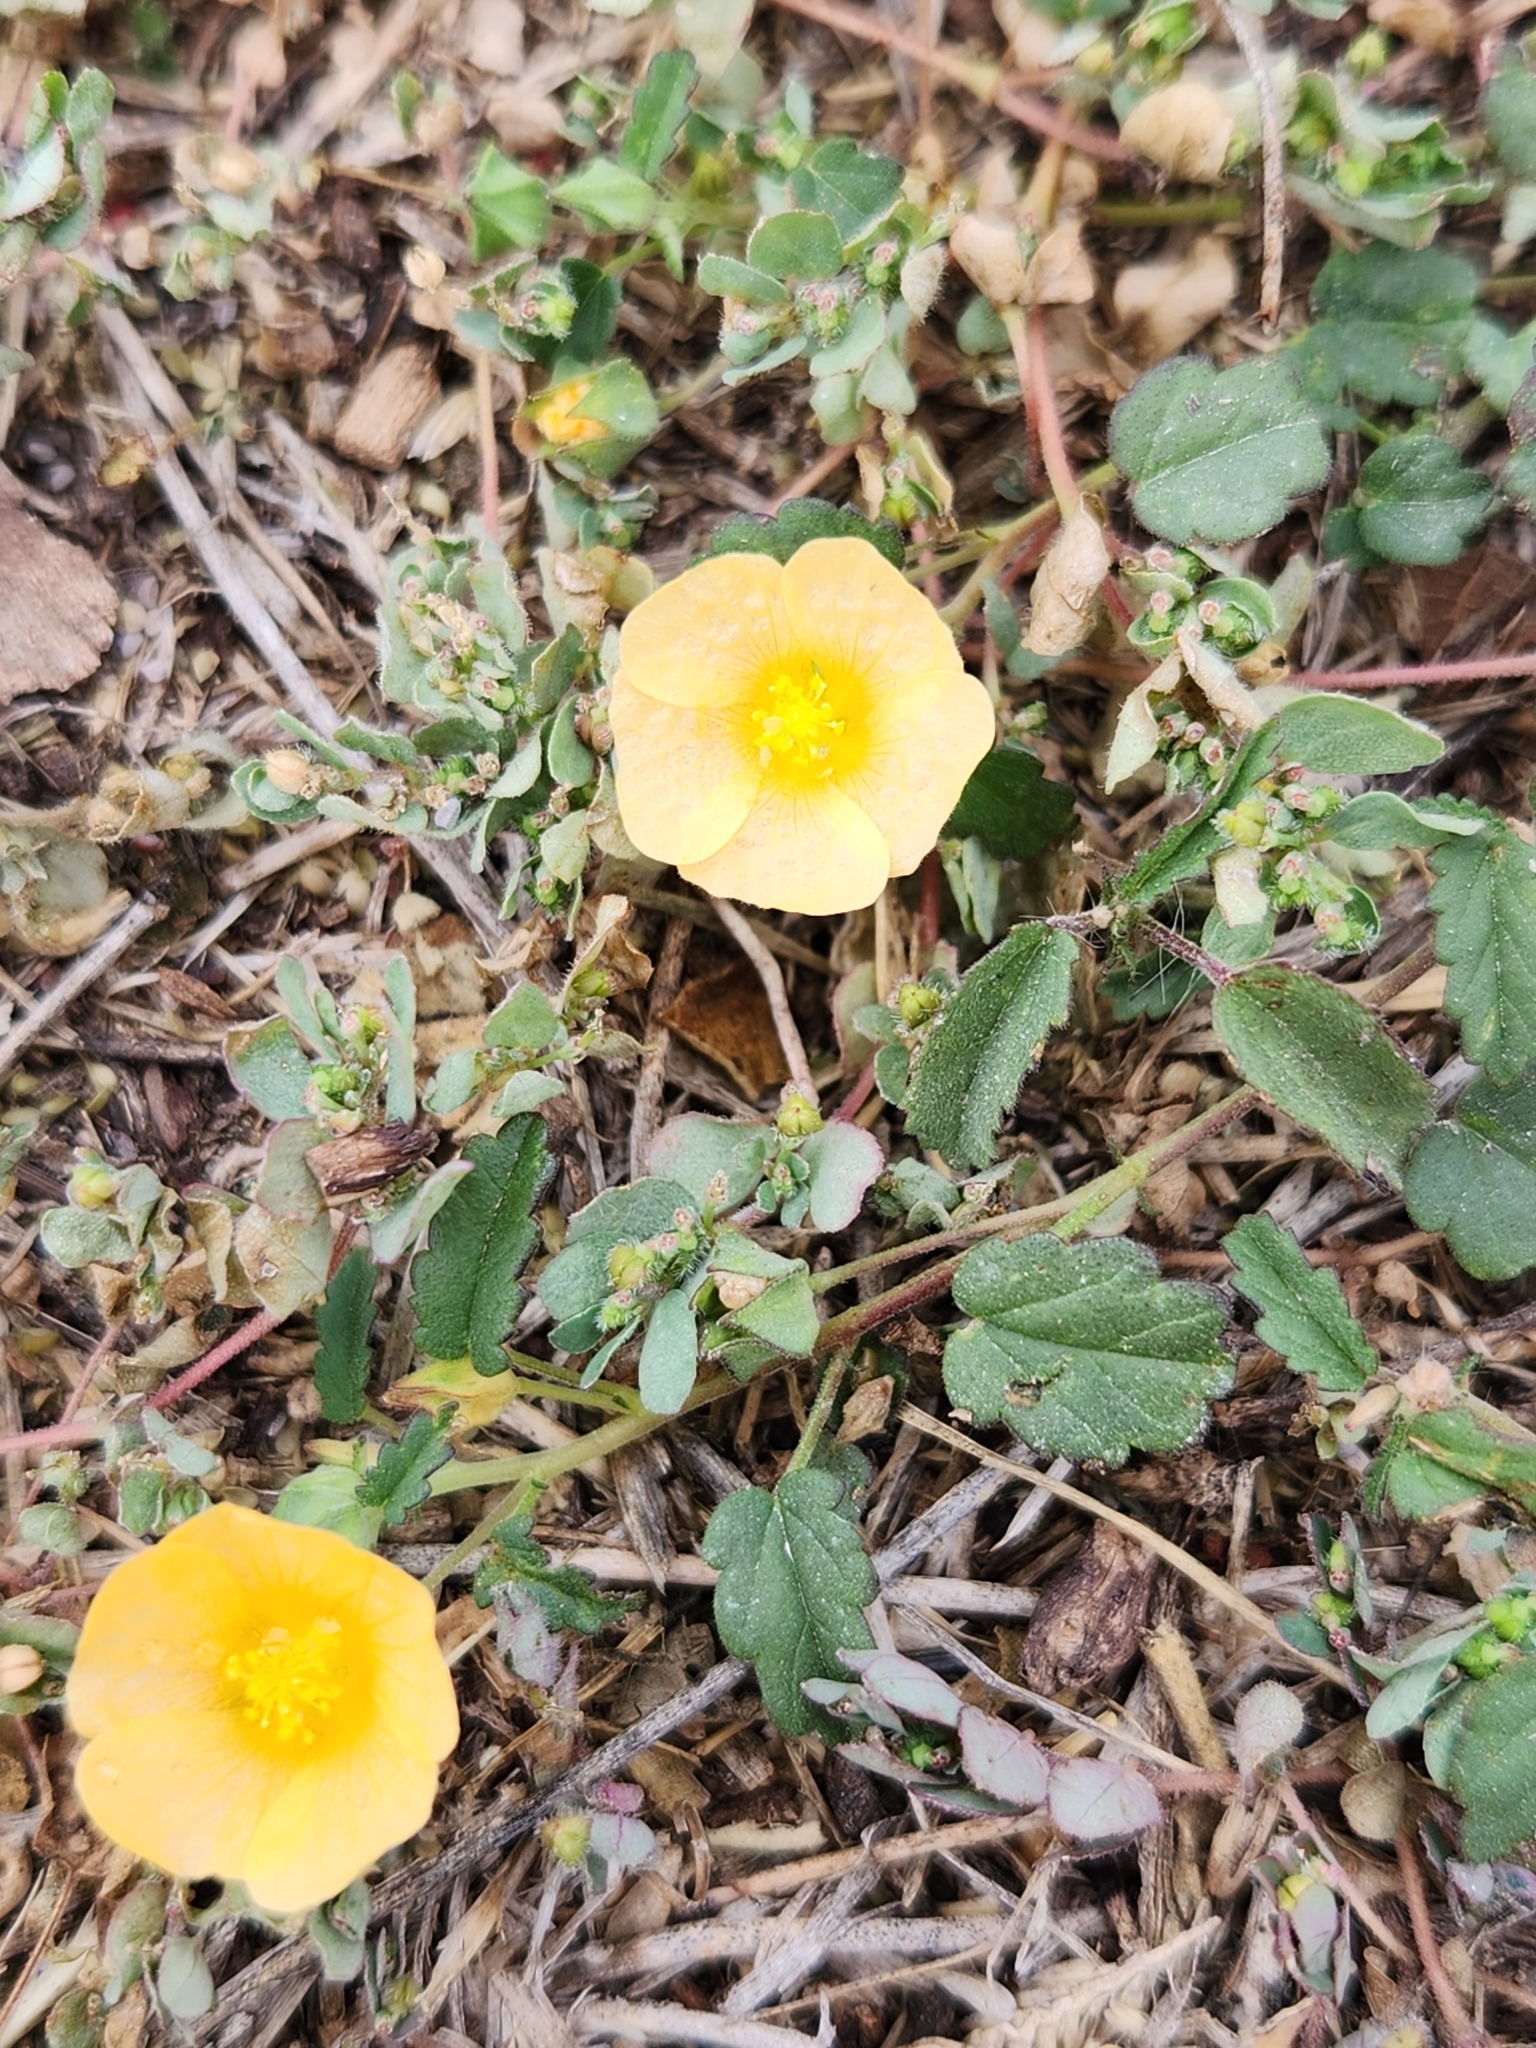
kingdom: Plantae
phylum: Tracheophyta
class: Magnoliopsida
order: Malvales
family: Malvaceae
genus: Sida
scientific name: Sida abutilifolia
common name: Spreading fanpetals
